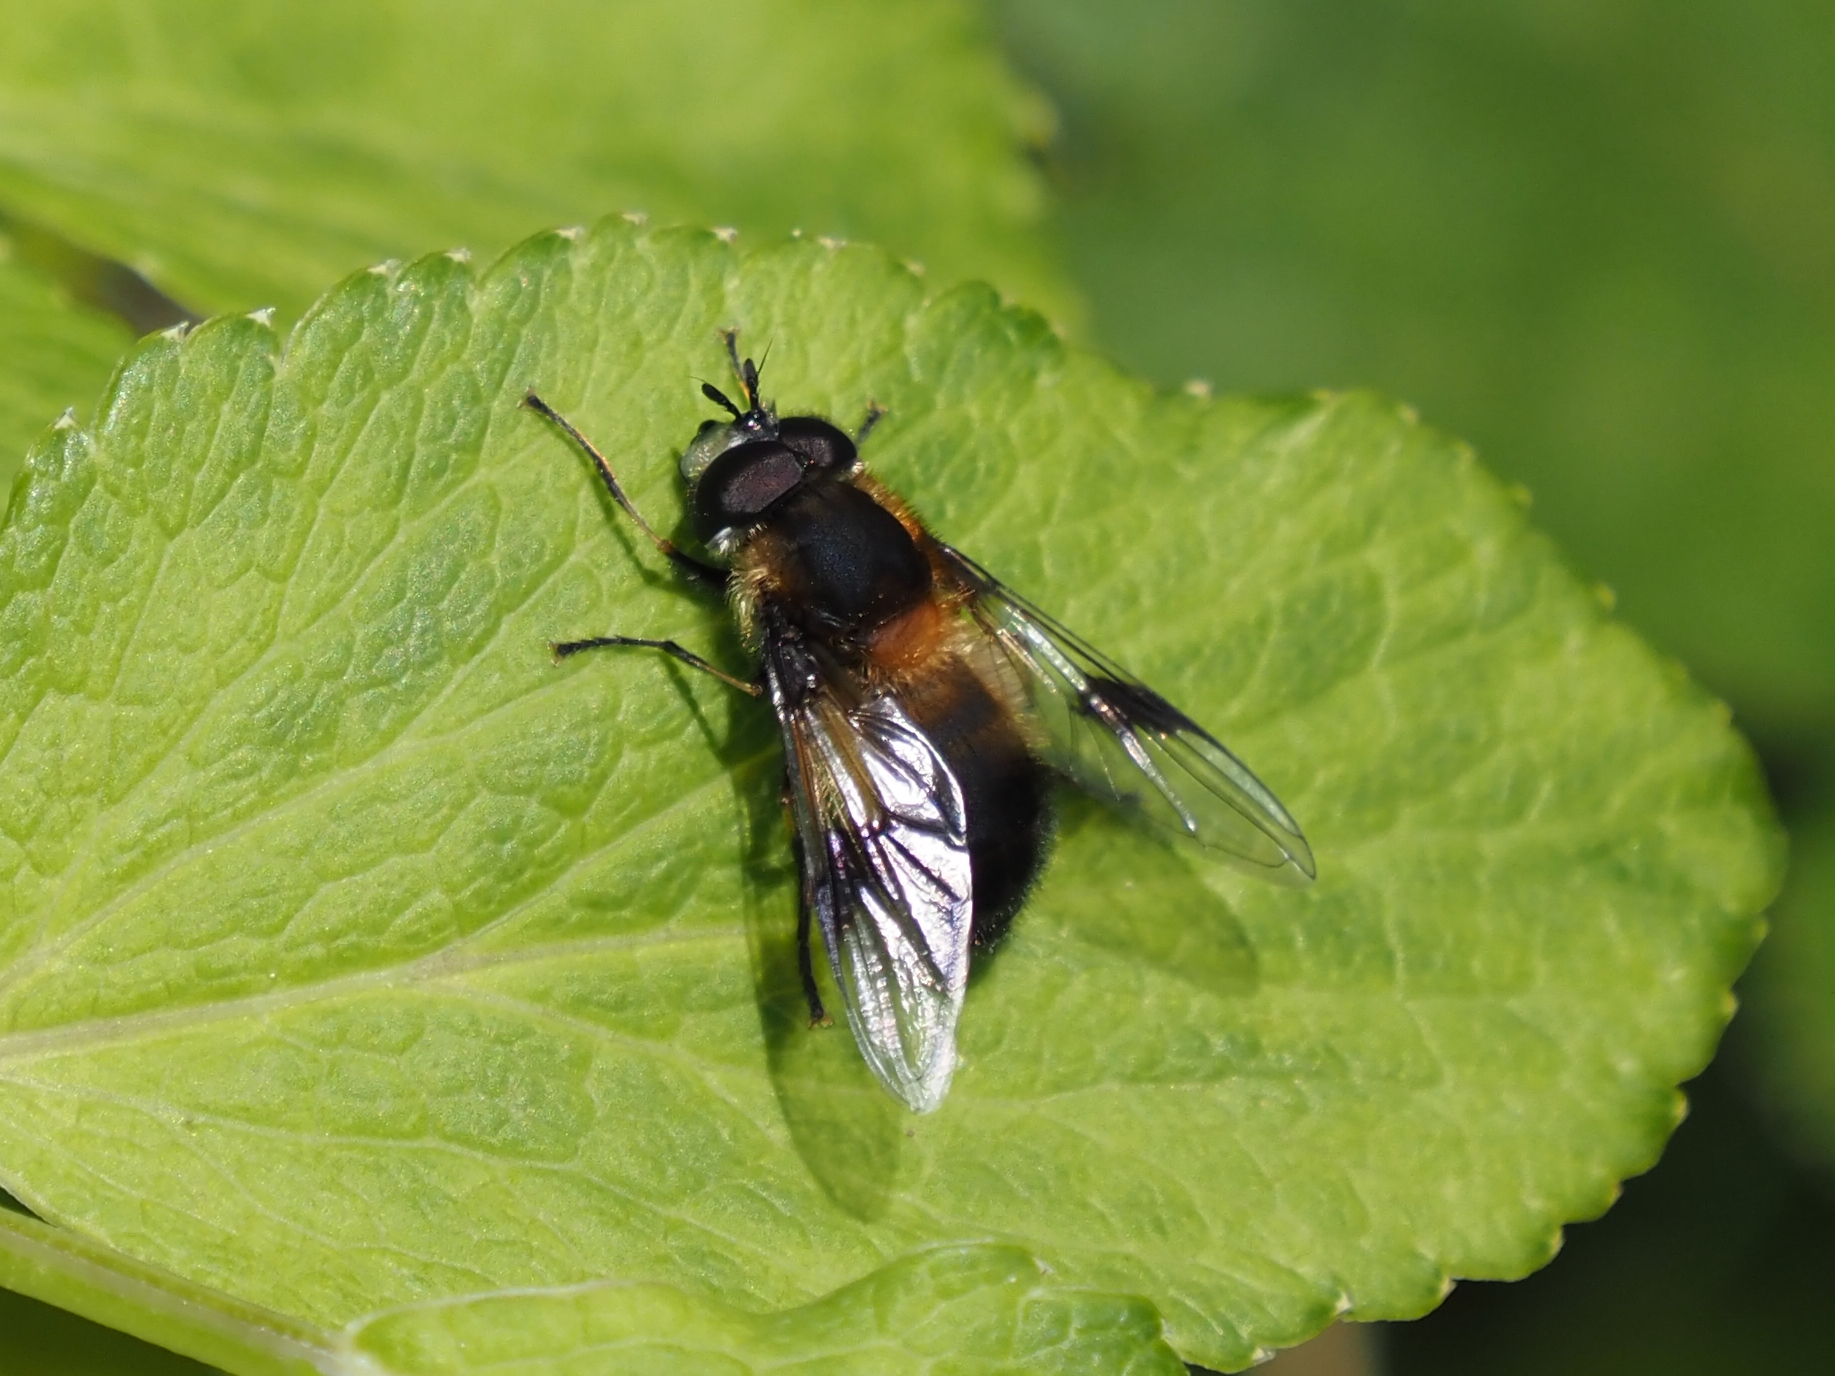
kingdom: Animalia
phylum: Arthropoda
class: Insecta
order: Diptera
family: Syrphidae
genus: Leucozona
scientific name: Leucozona americana
